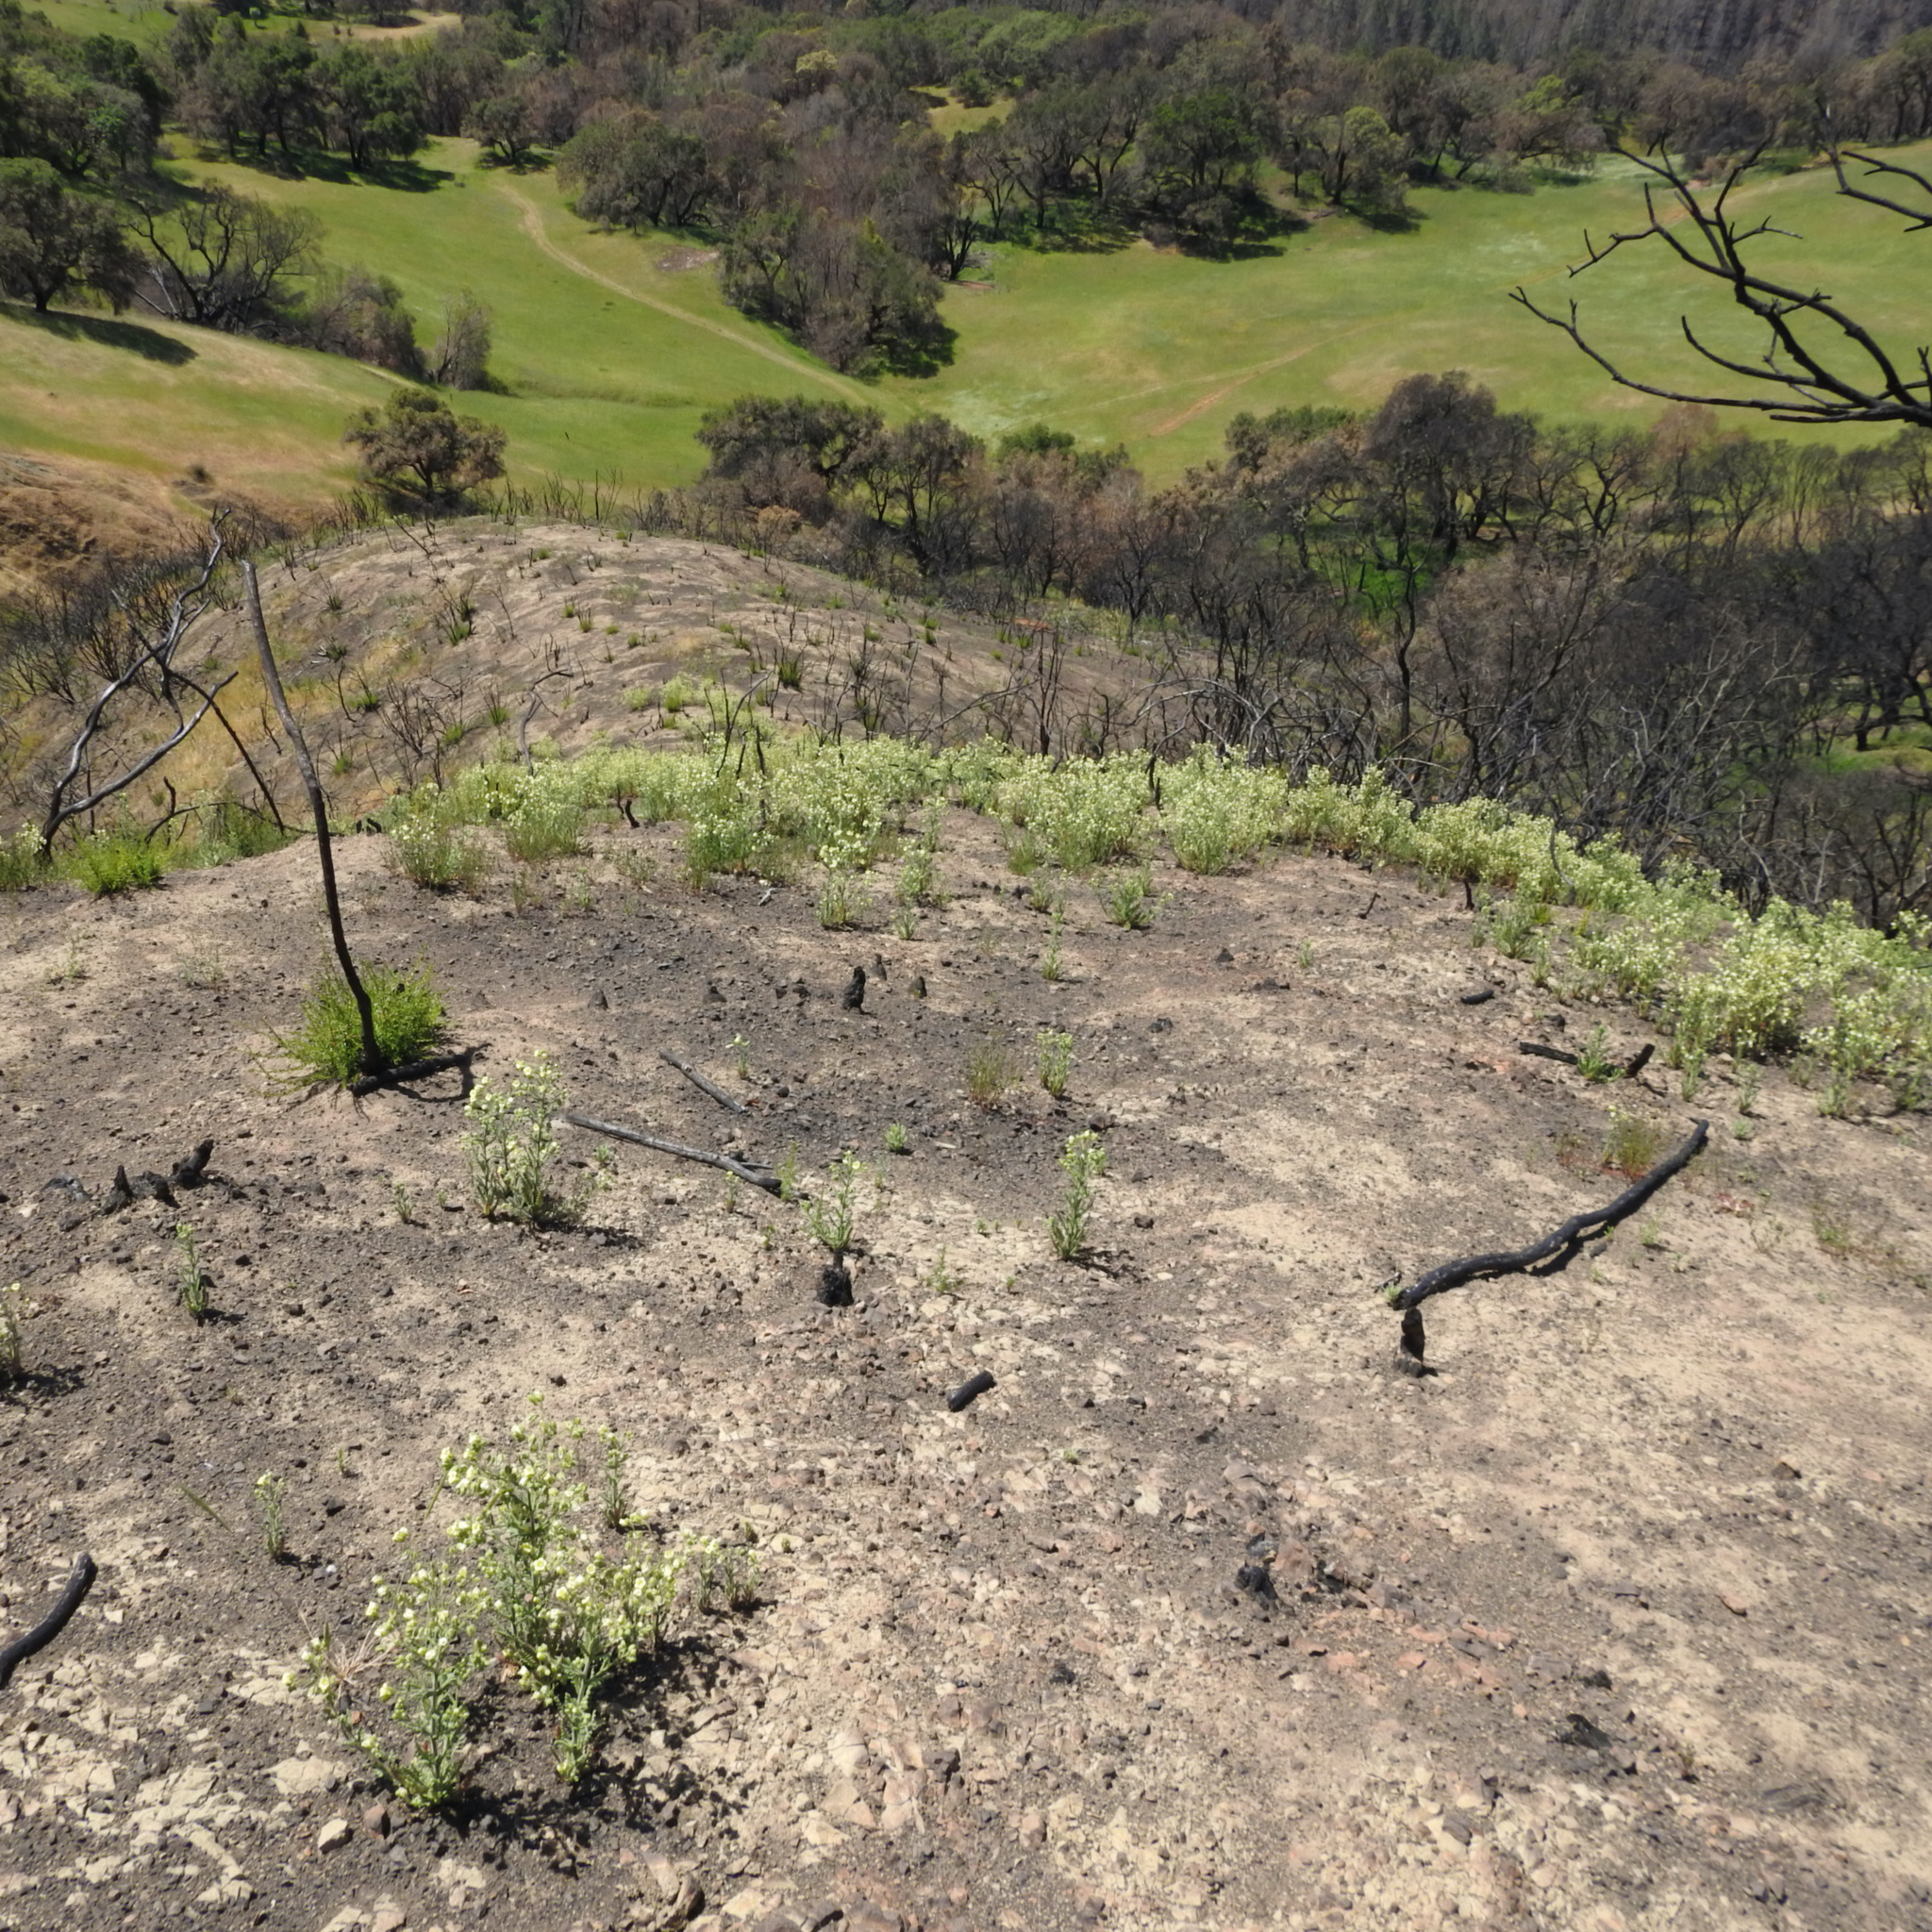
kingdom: Plantae
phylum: Tracheophyta
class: Magnoliopsida
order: Boraginales
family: Hydrophyllaceae
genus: Emmenanthe
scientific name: Emmenanthe penduliflora
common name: Whispering-bells
